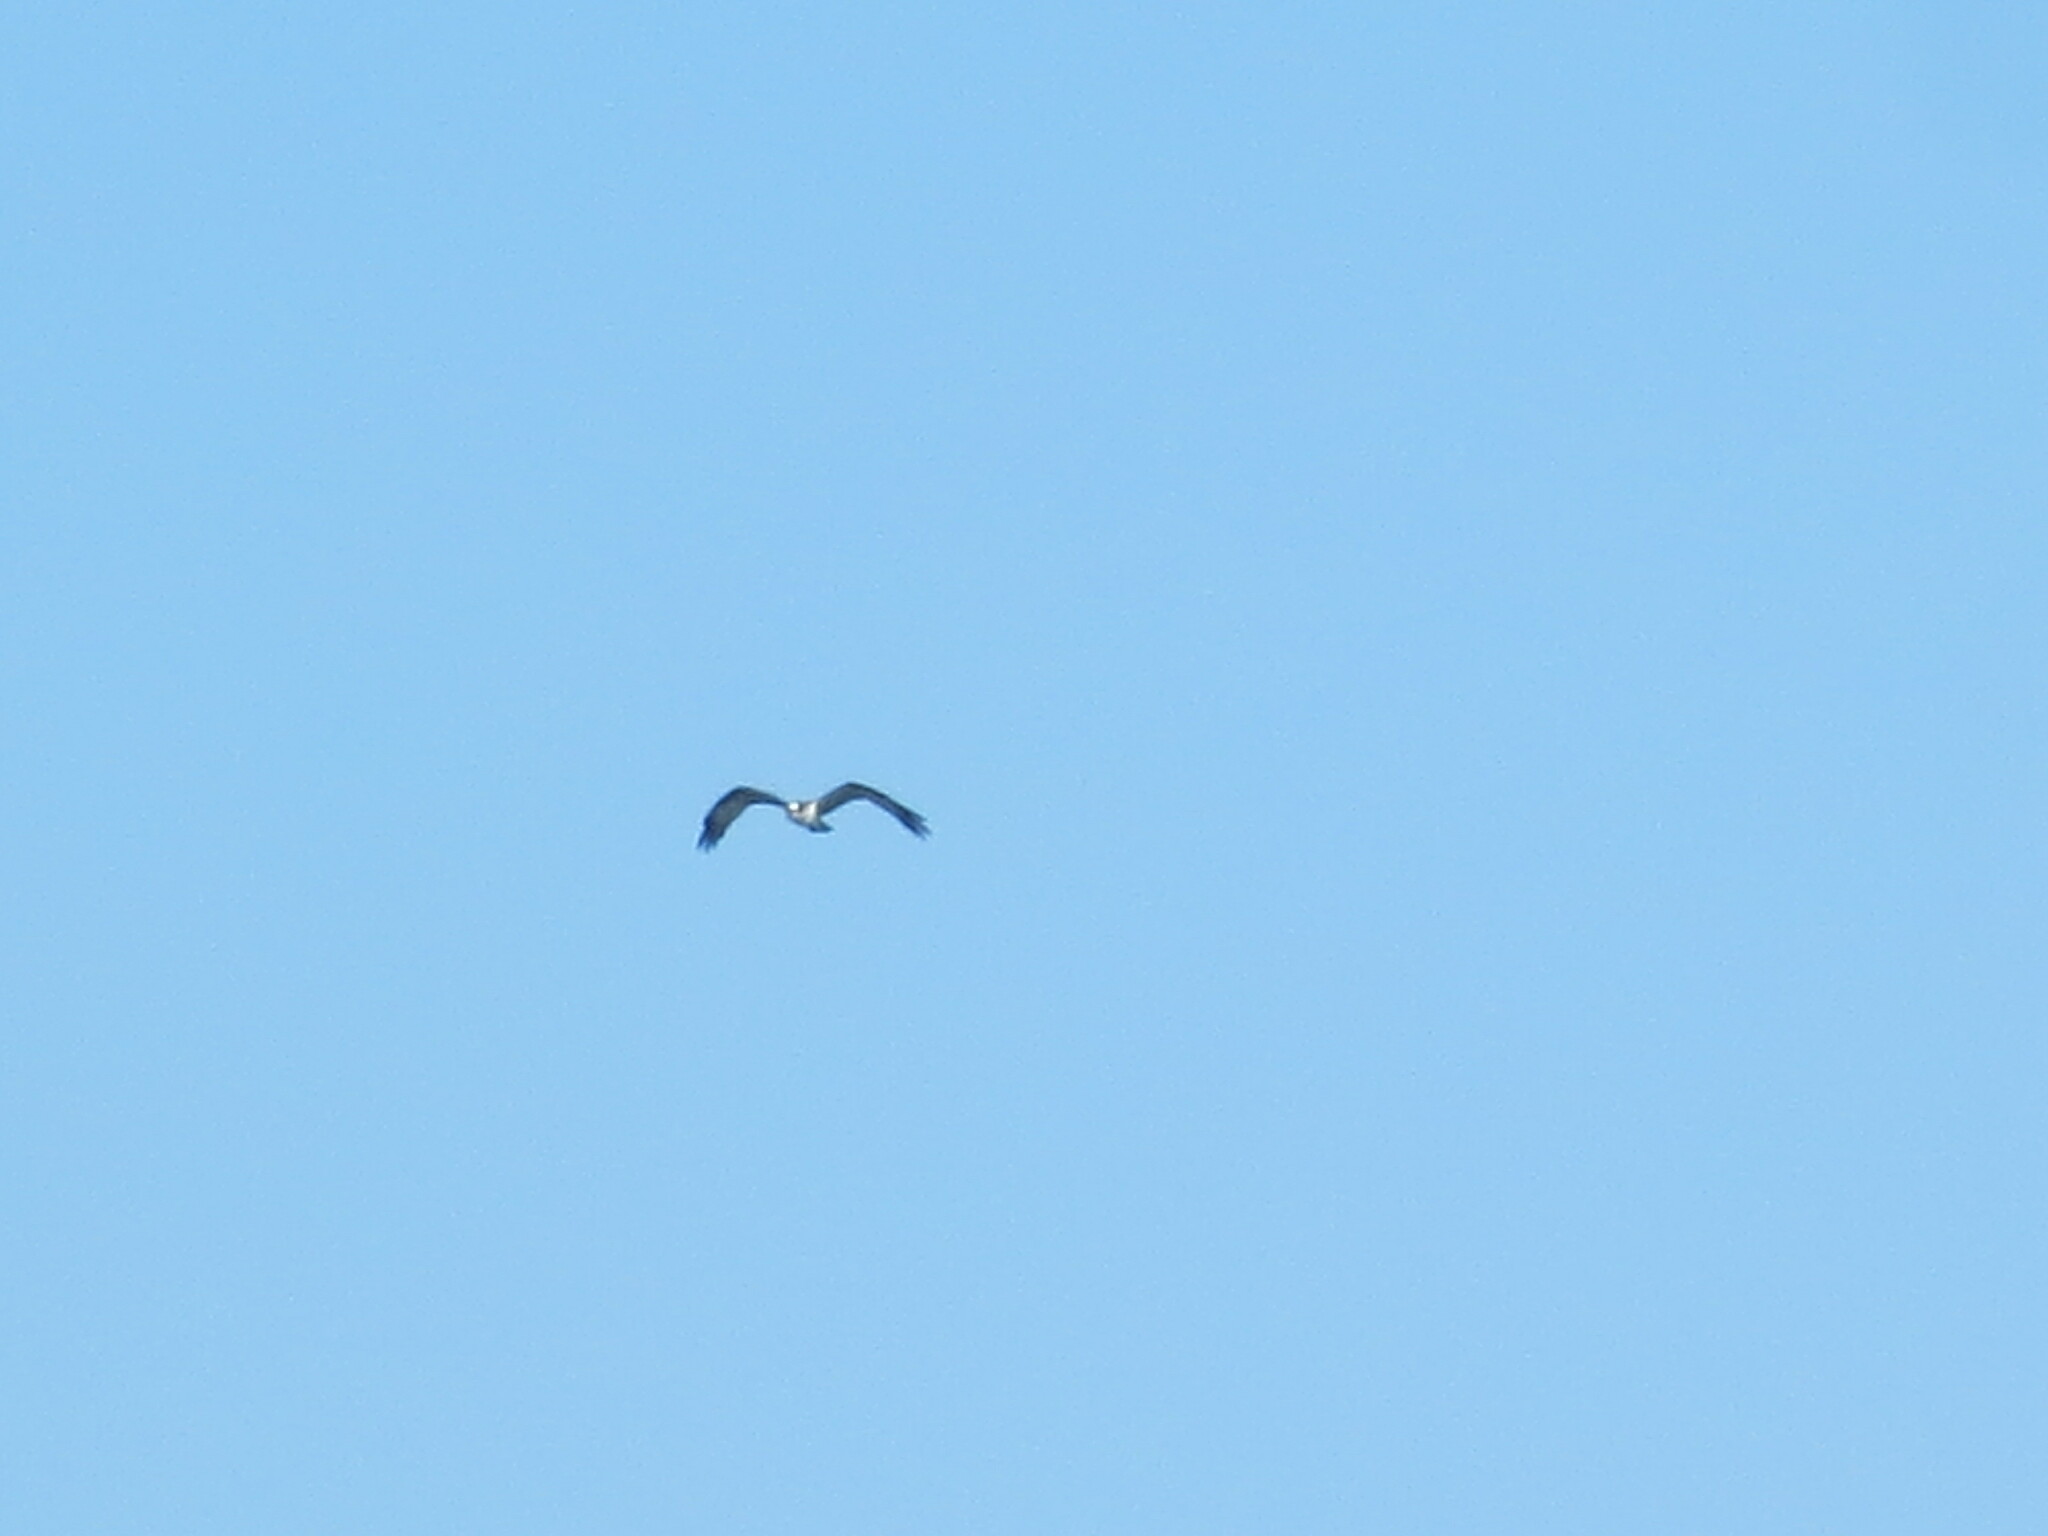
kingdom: Animalia
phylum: Chordata
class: Aves
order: Accipitriformes
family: Pandionidae
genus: Pandion
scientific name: Pandion haliaetus
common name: Osprey
